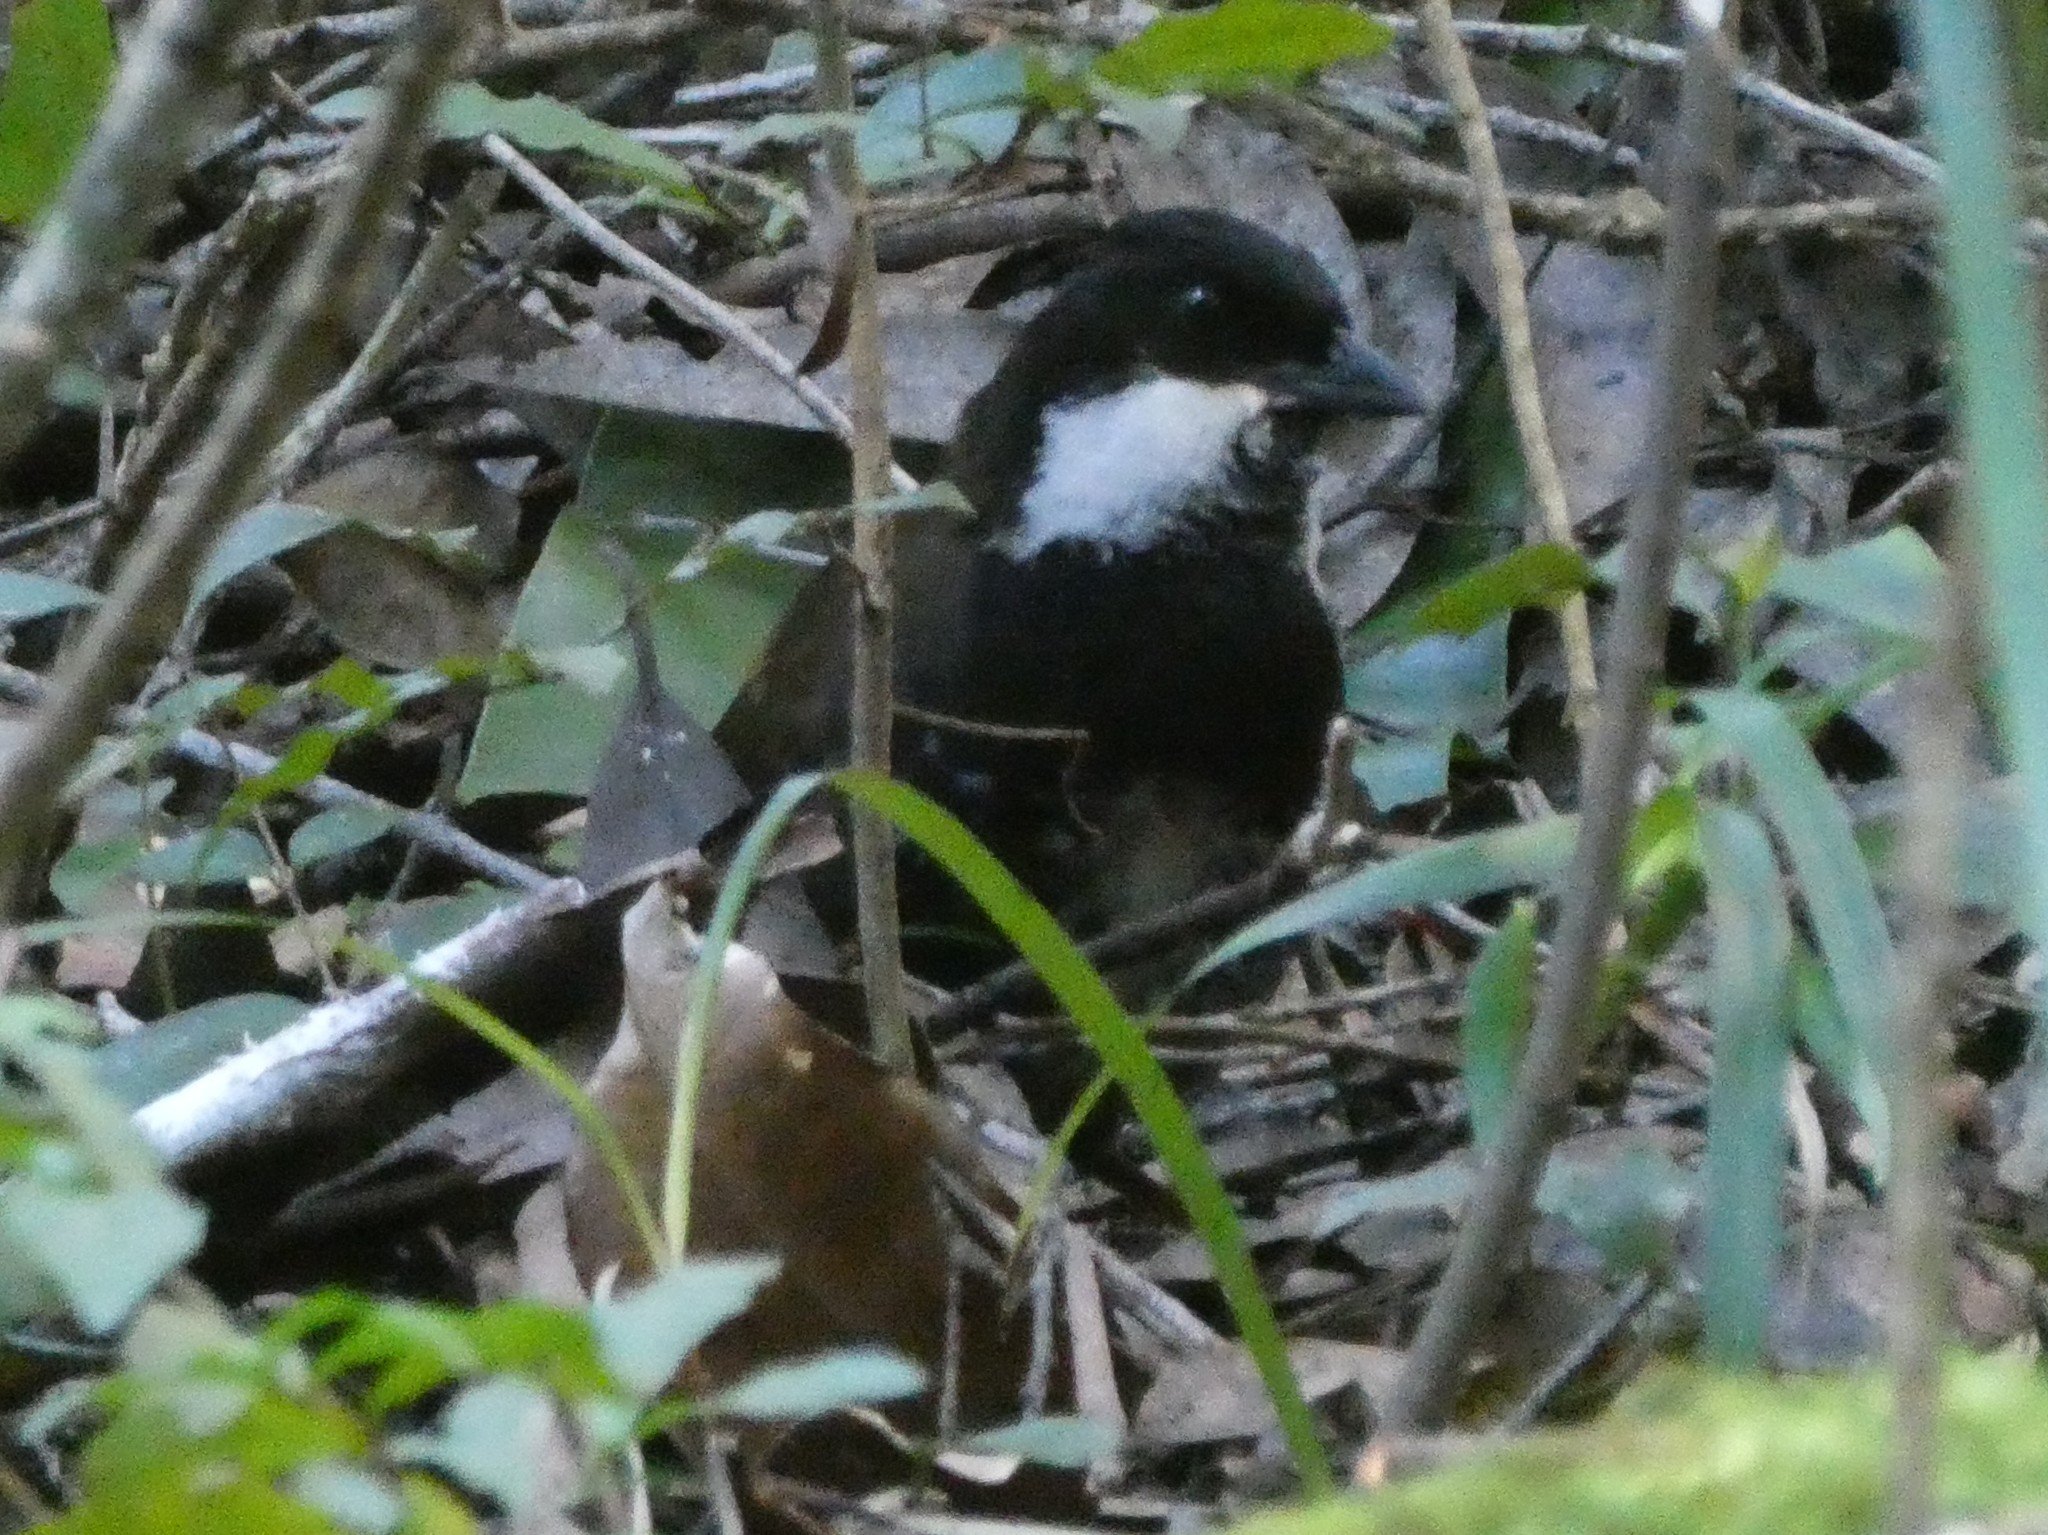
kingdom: Animalia
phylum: Chordata
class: Aves
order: Passeriformes
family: Psophodidae
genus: Psophodes
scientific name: Psophodes olivaceus
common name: Eastern whipbird
